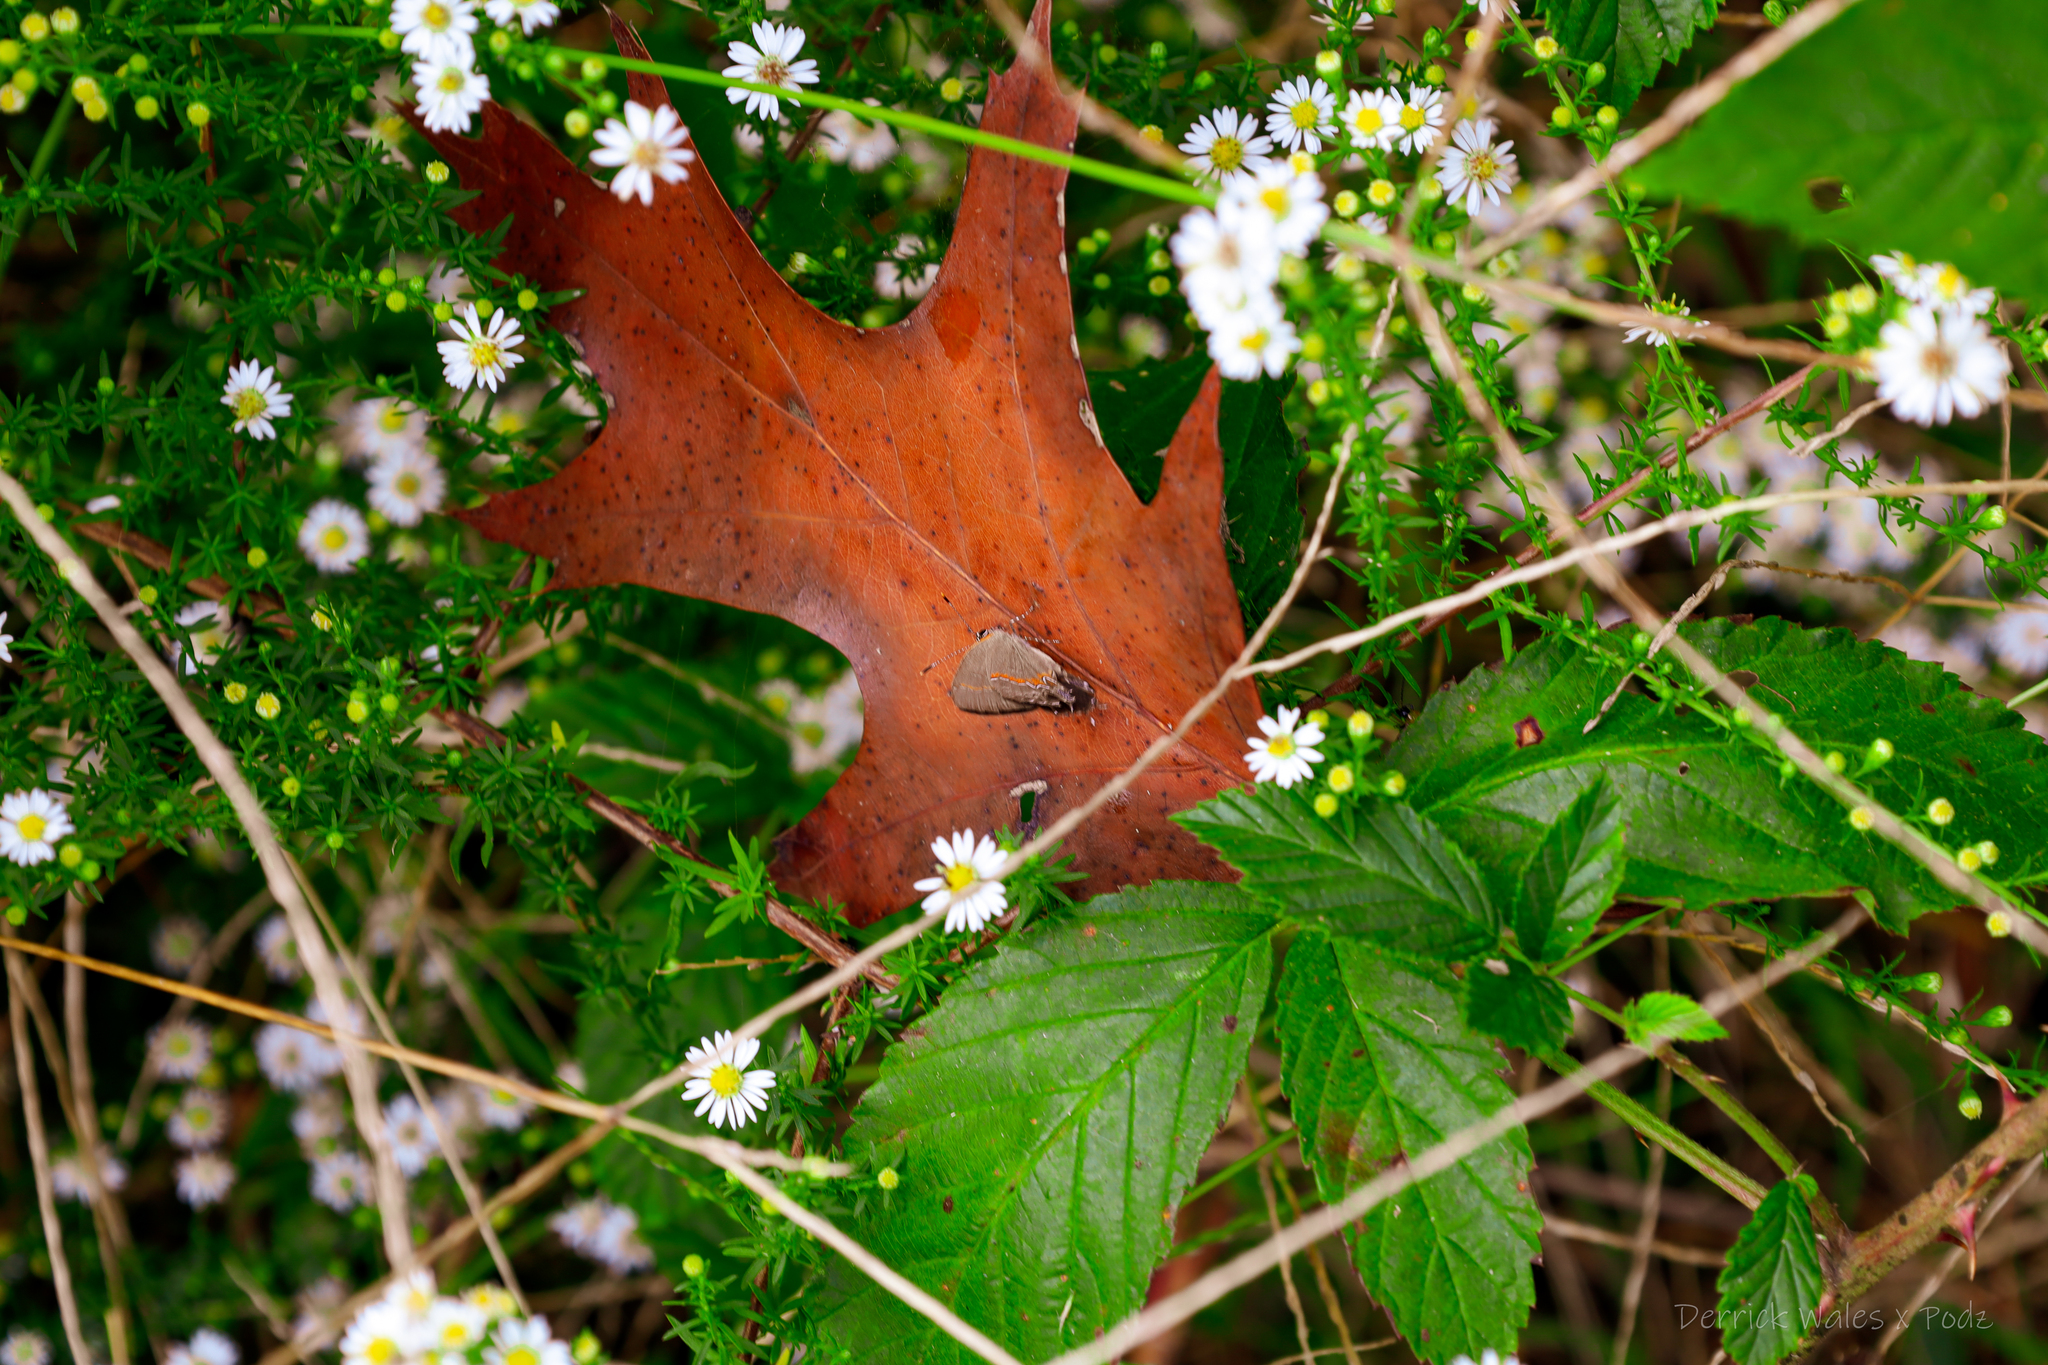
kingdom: Animalia
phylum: Arthropoda
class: Insecta
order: Lepidoptera
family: Lycaenidae
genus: Calycopis
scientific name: Calycopis cecrops
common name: Red-banded hairstreak
